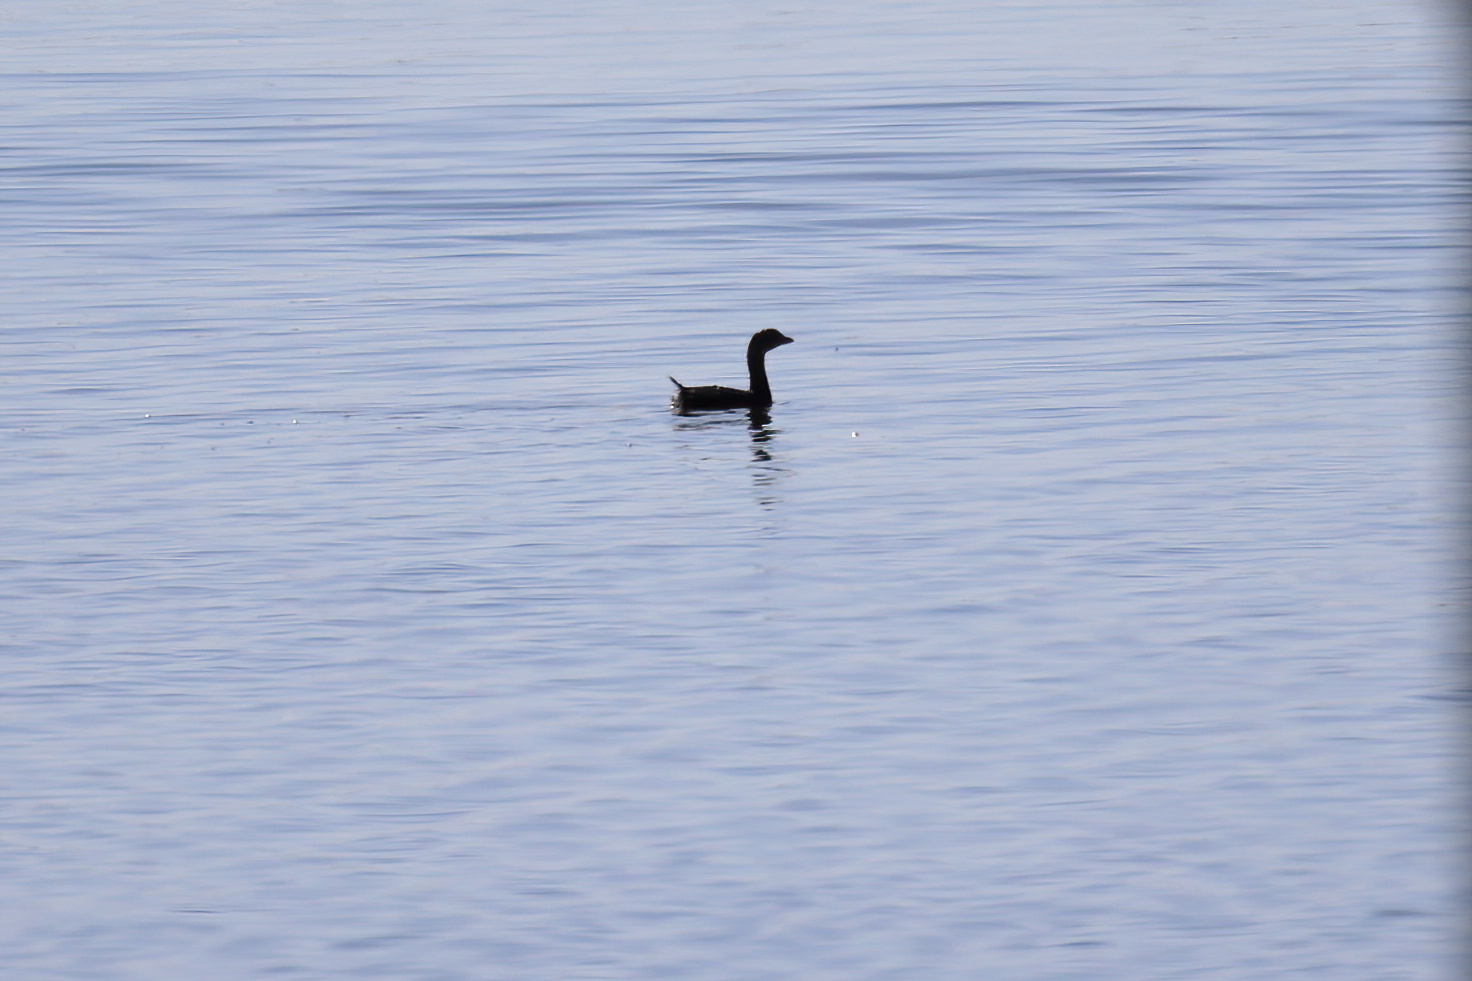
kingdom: Animalia
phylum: Chordata
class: Aves
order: Podicipediformes
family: Podicipedidae
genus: Podilymbus
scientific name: Podilymbus podiceps
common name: Pied-billed grebe
